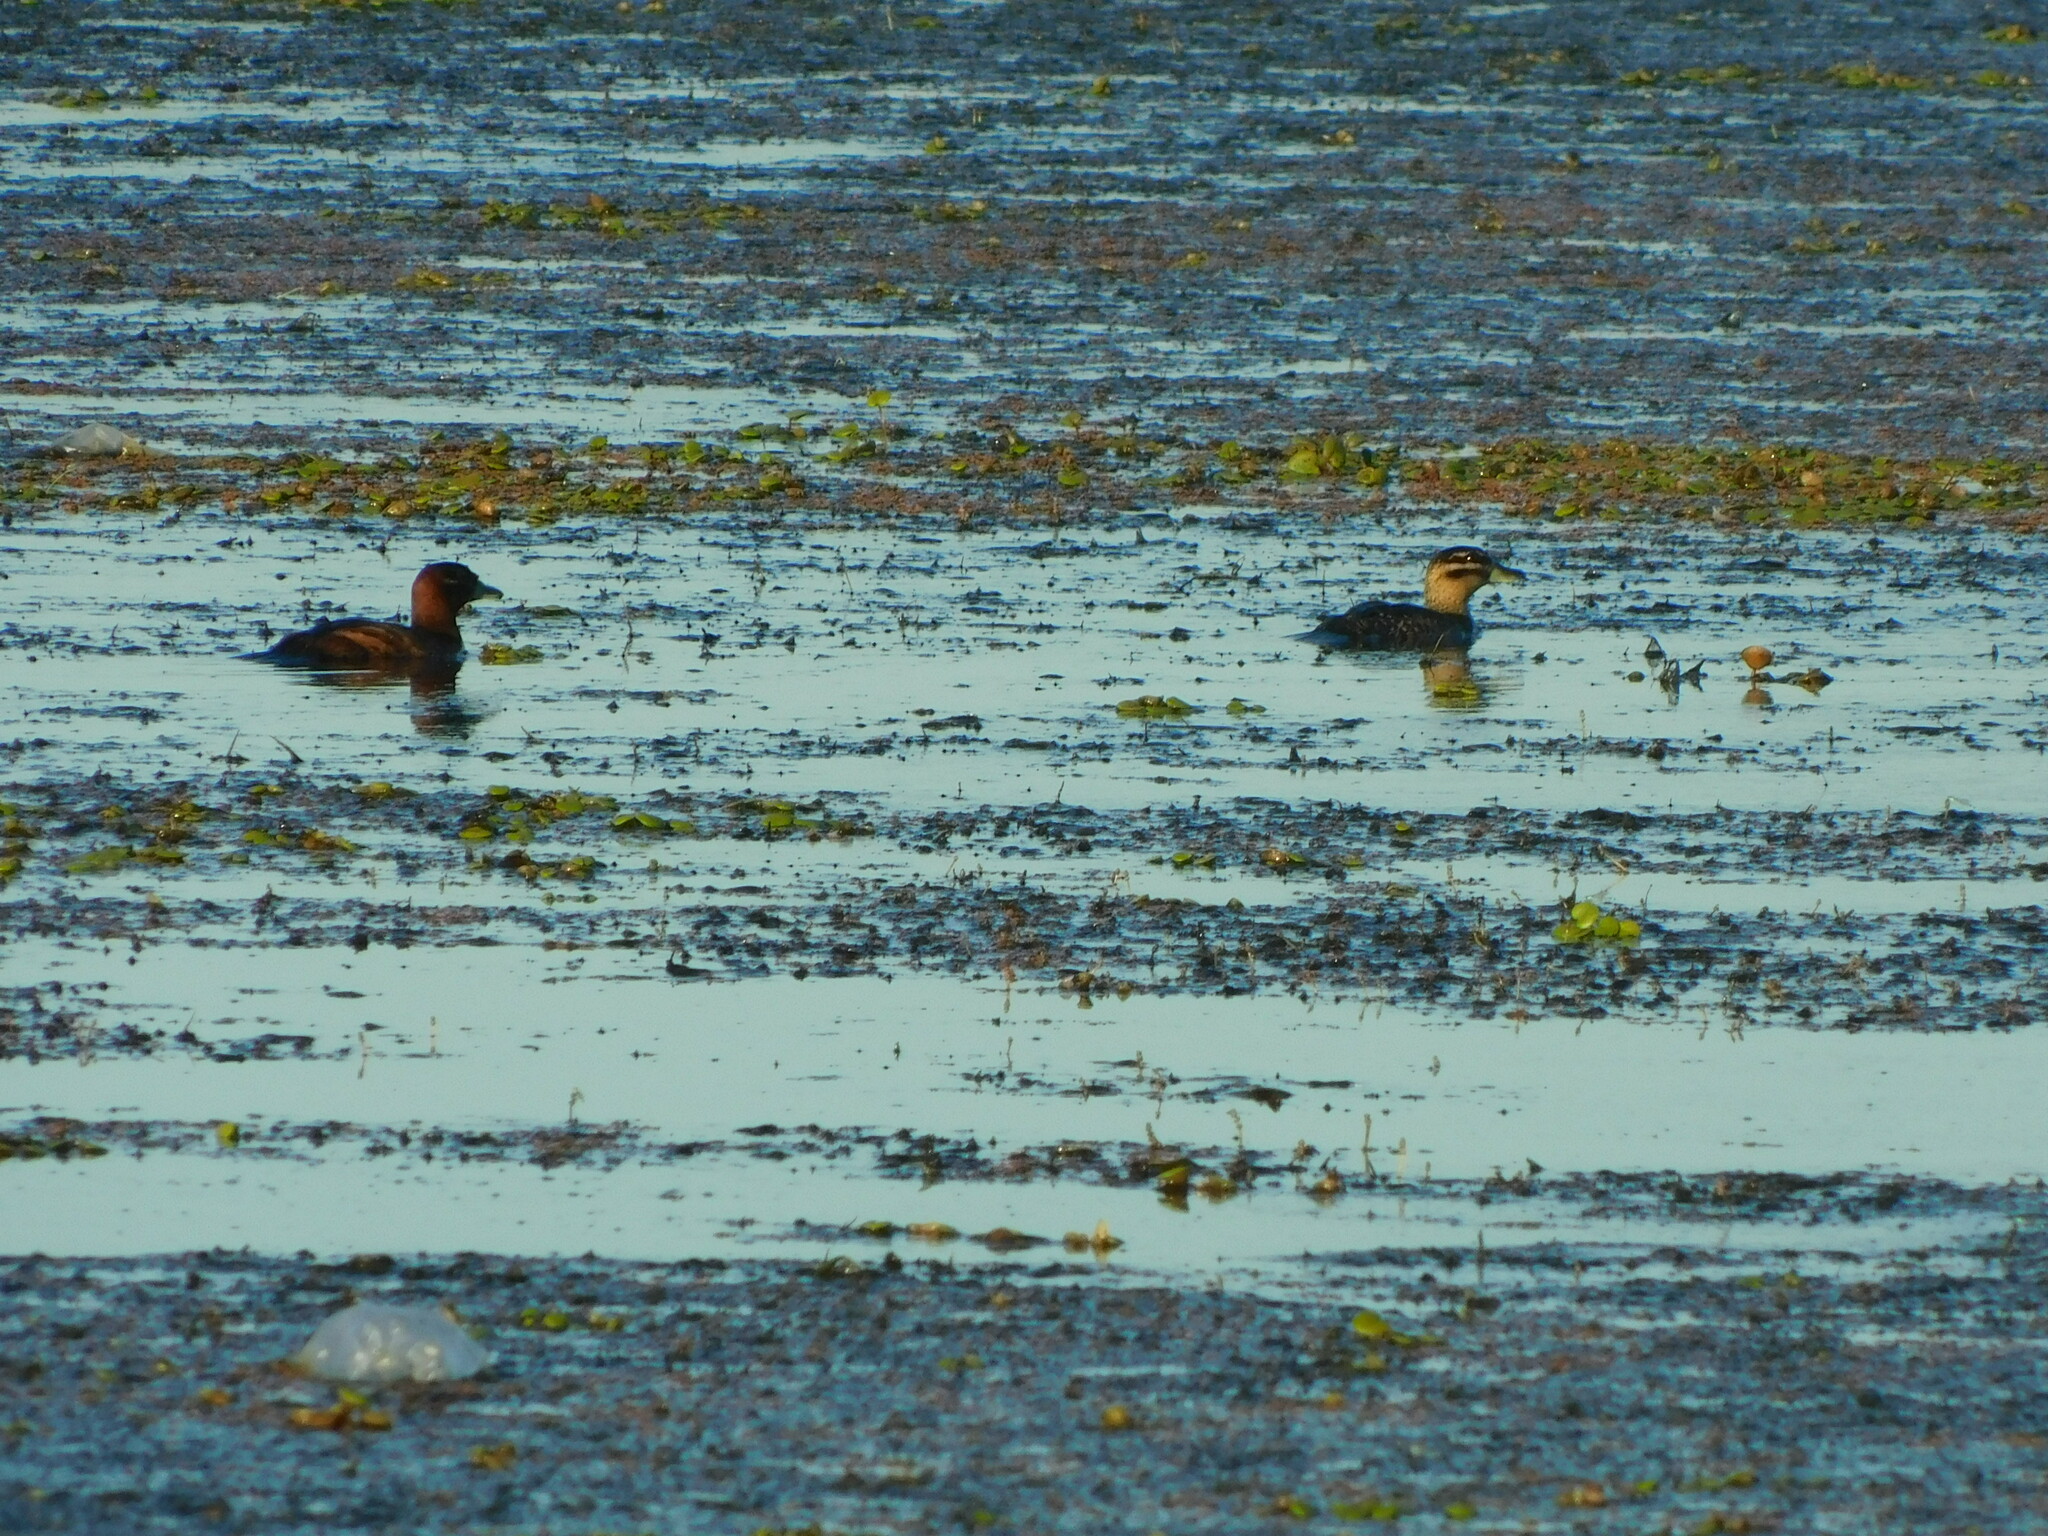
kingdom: Animalia
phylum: Chordata
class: Aves
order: Anseriformes
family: Anatidae
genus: Nomonyx
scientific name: Nomonyx dominicus
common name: Masked duck
